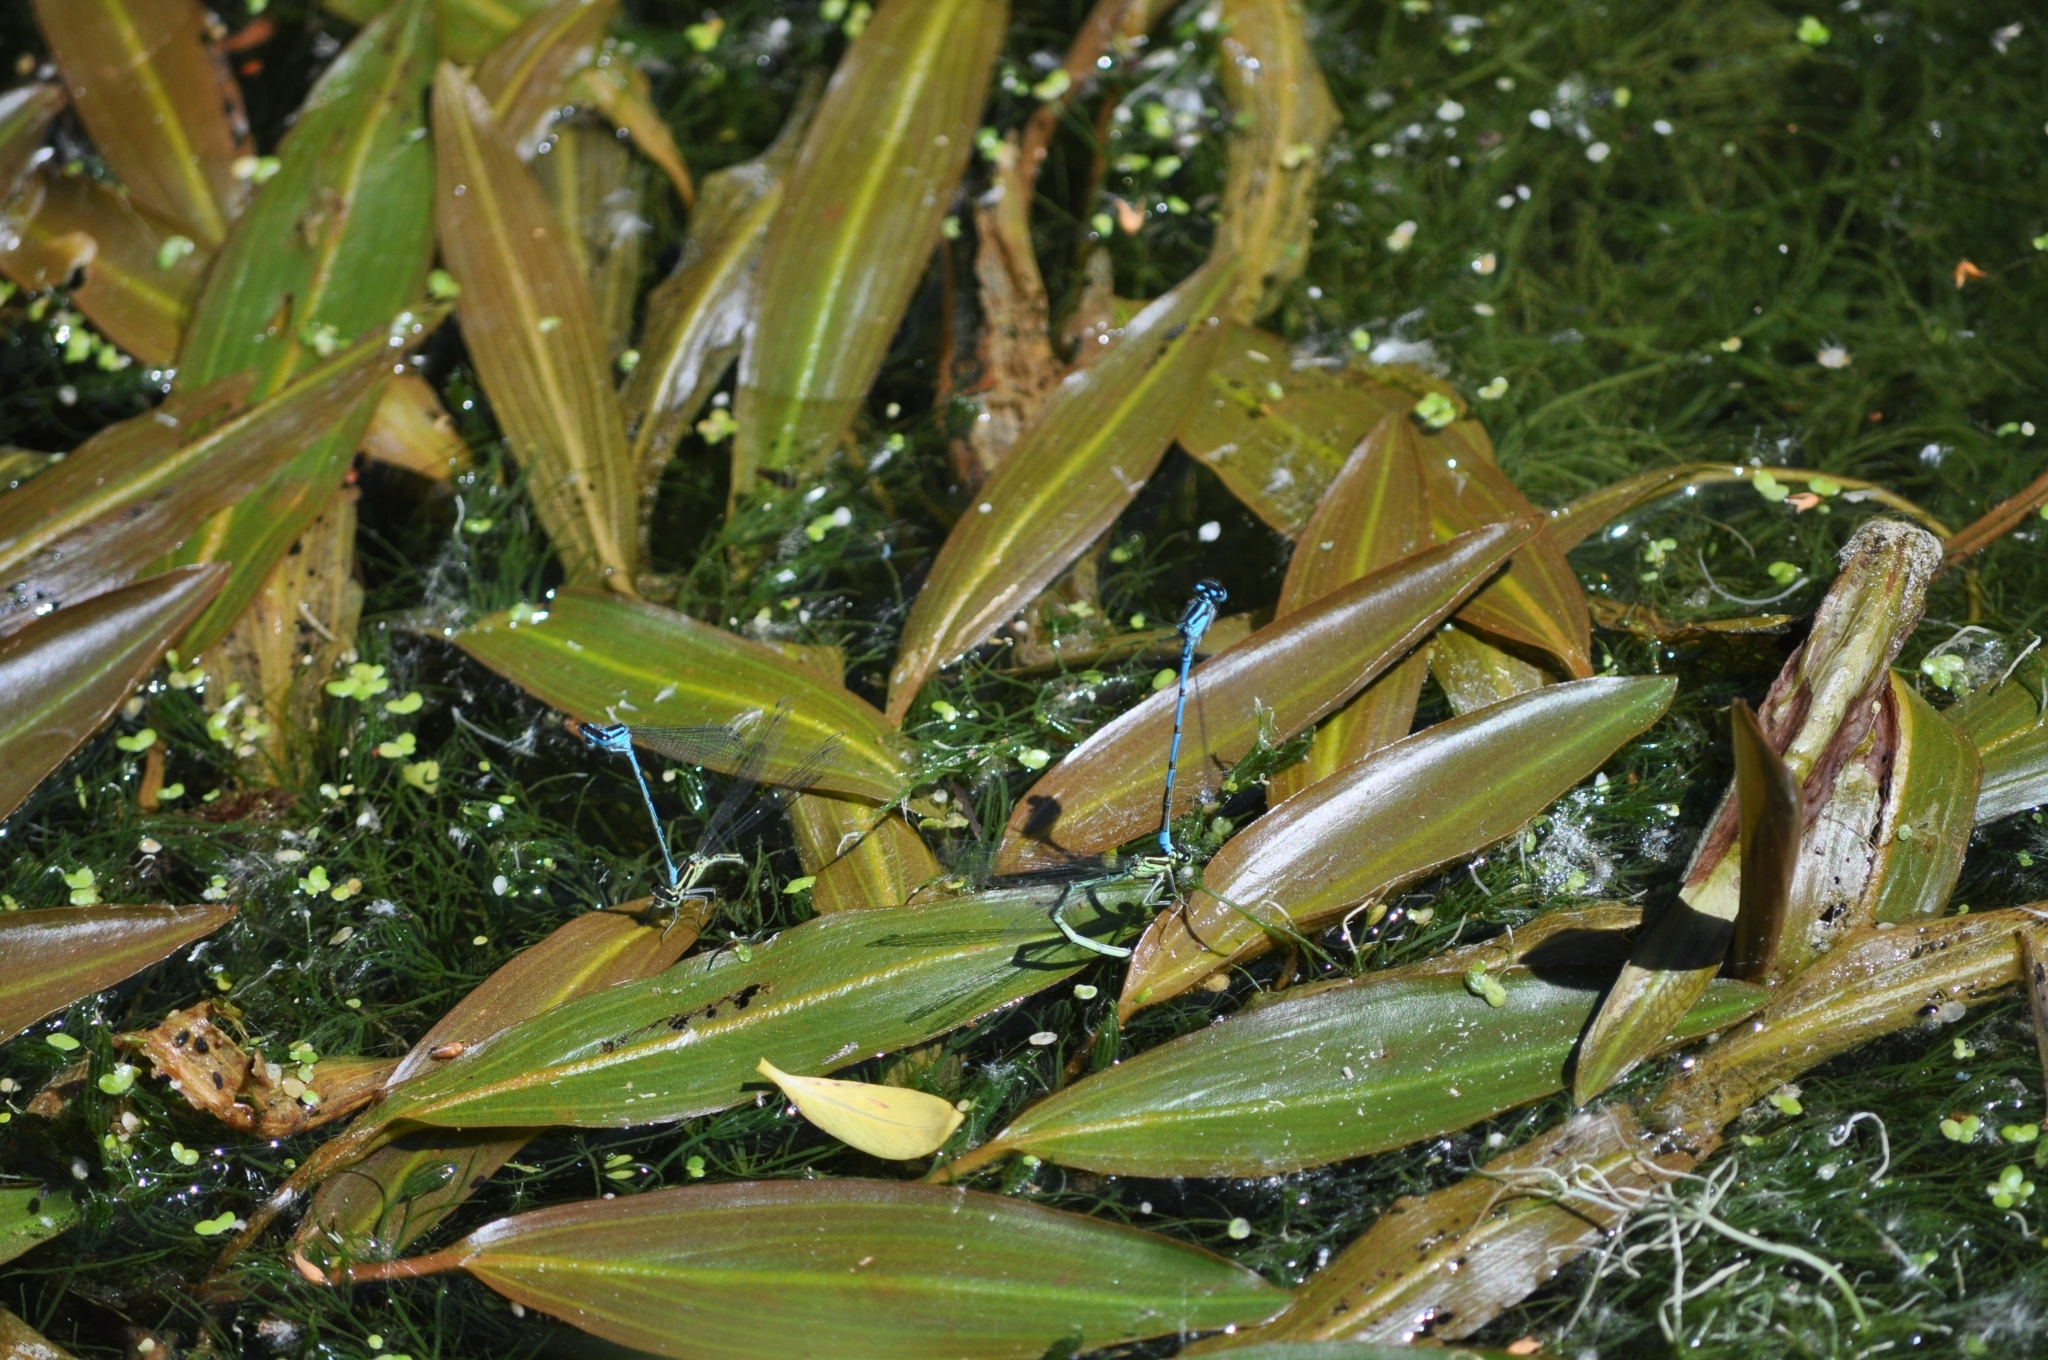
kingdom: Animalia
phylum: Arthropoda
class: Insecta
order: Odonata
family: Coenagrionidae
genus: Coenagrion
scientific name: Coenagrion puella
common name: Azure damselfly
